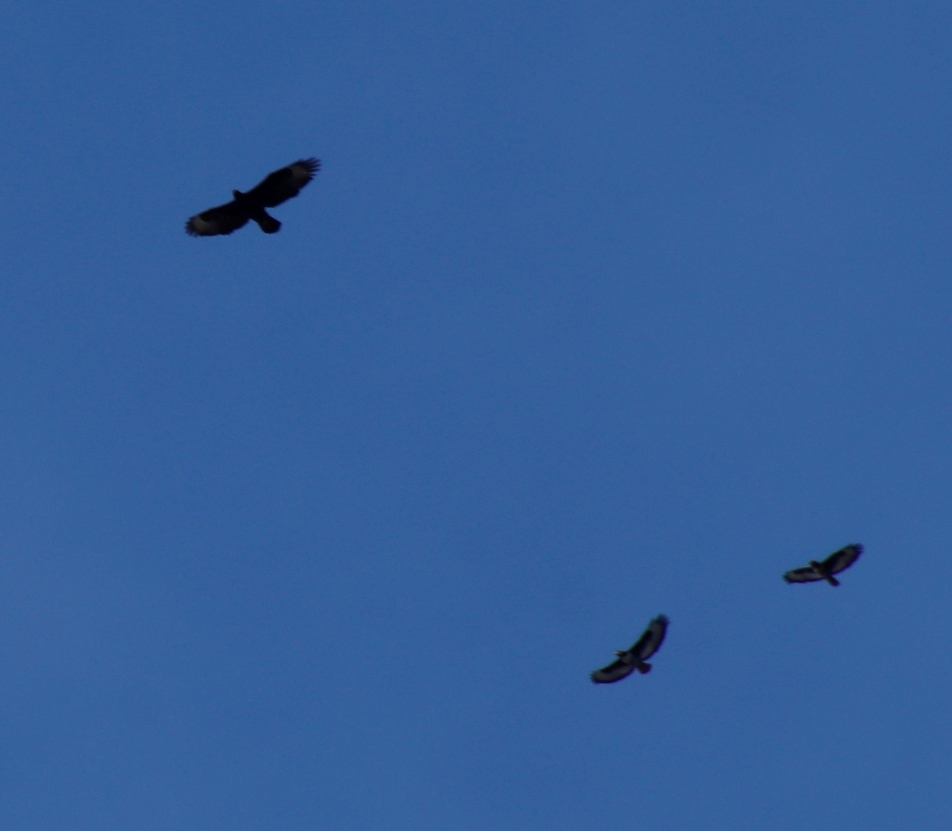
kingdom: Animalia
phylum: Chordata
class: Aves
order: Accipitriformes
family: Accipitridae
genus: Aquila
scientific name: Aquila verreauxii
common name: Verreaux's eagle
